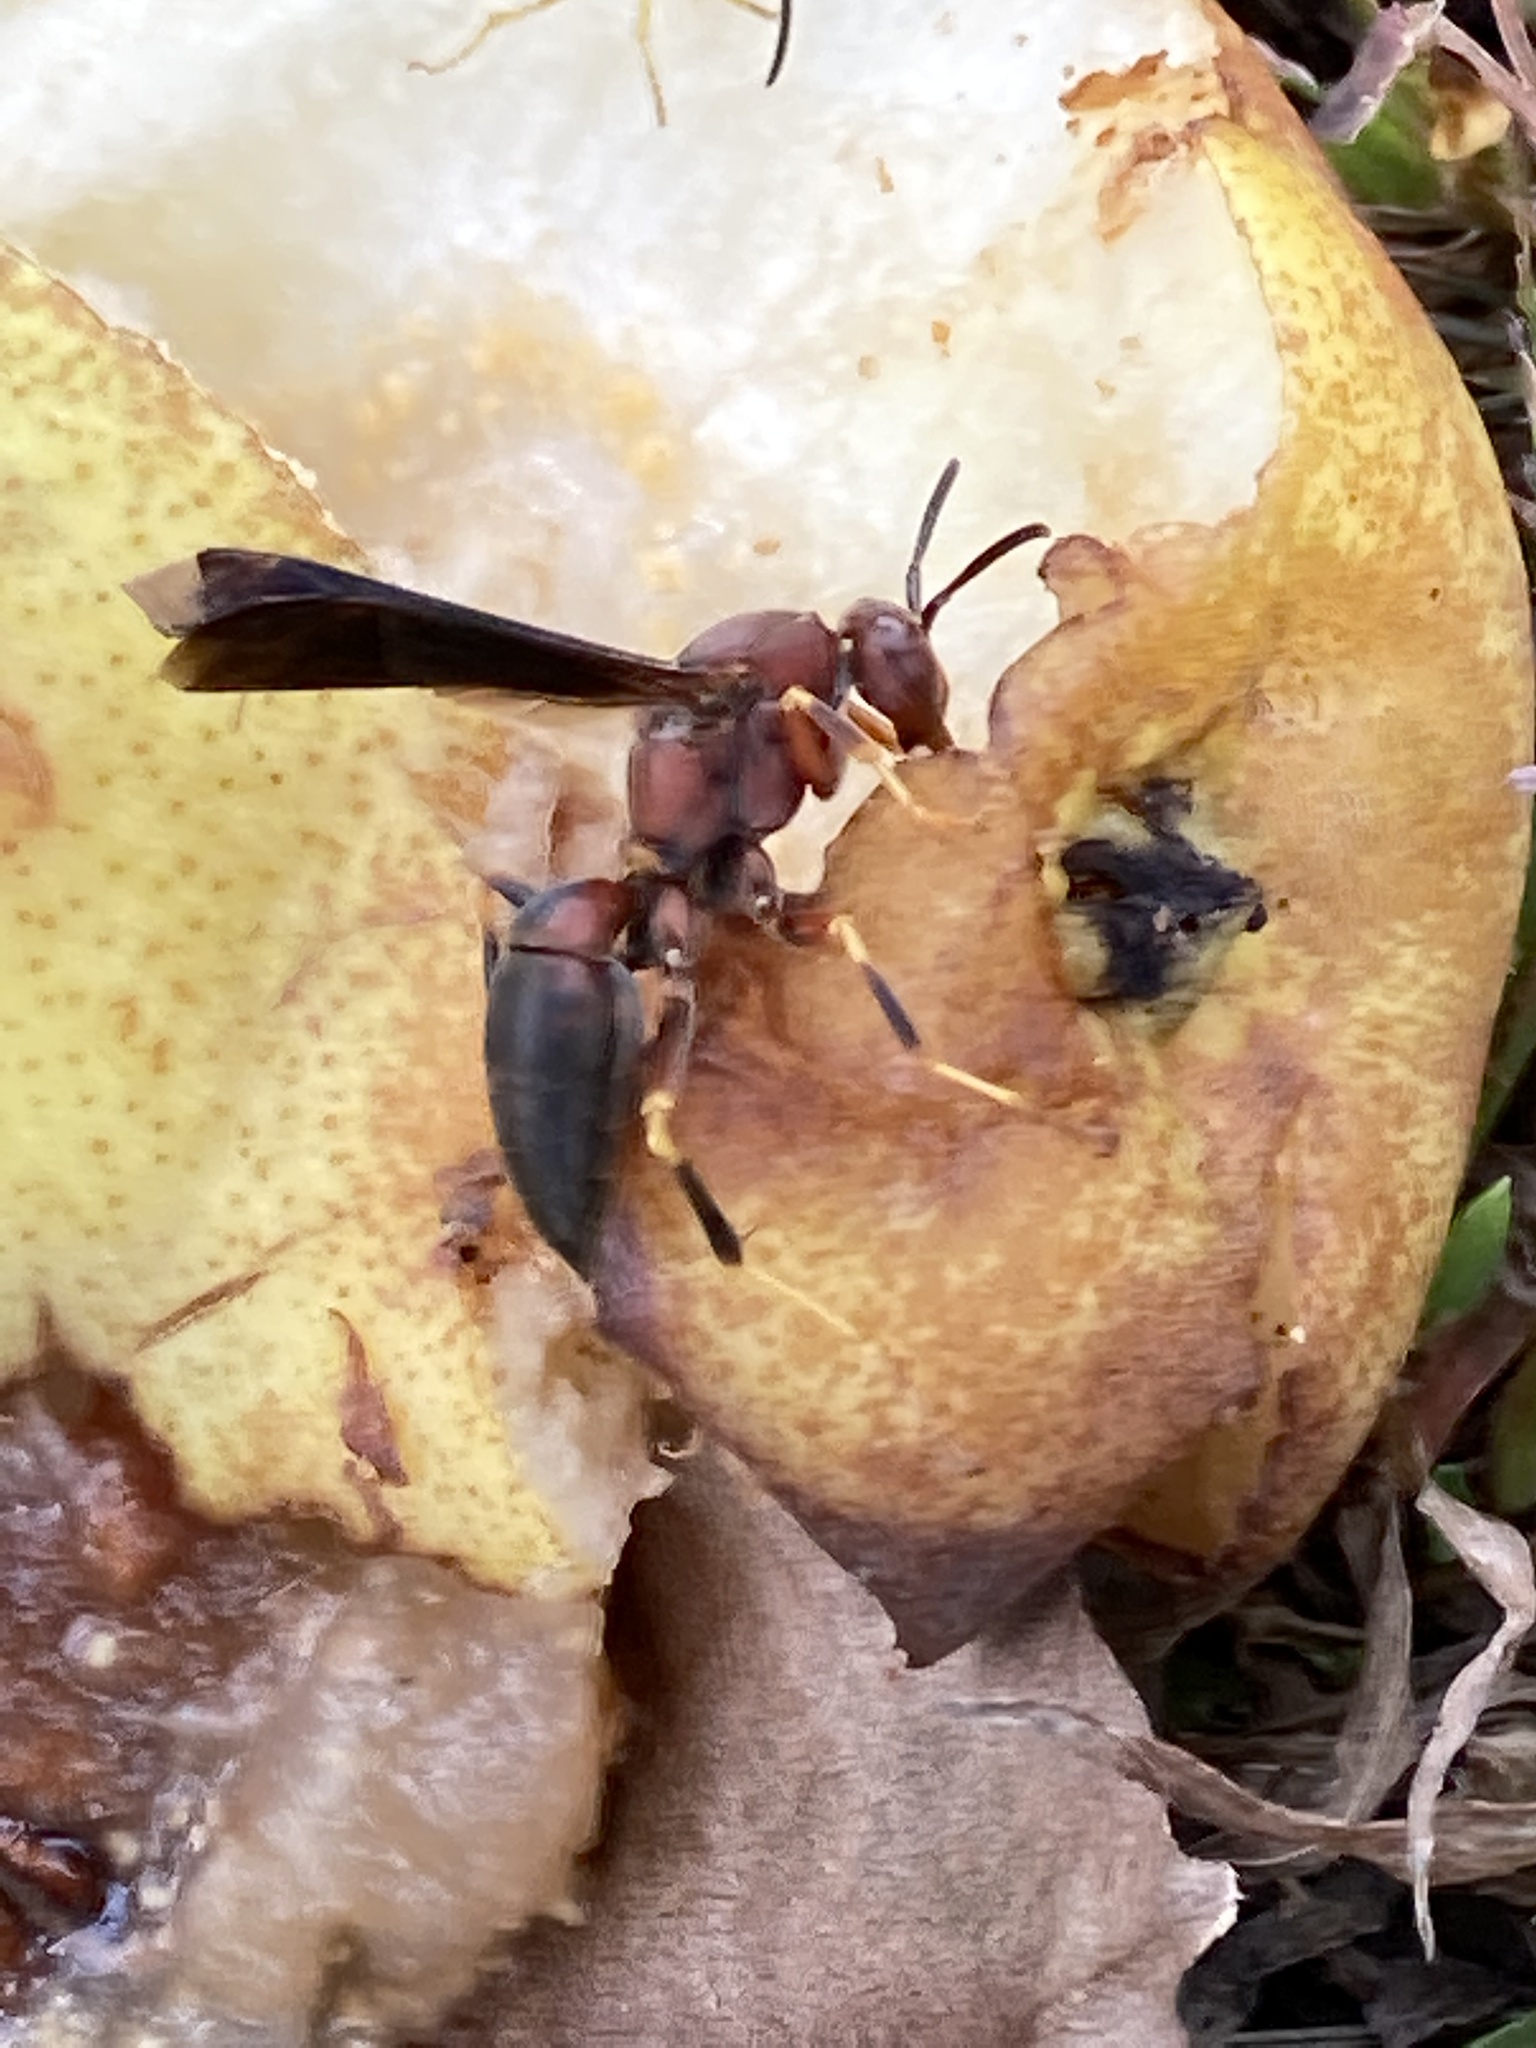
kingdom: Animalia
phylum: Arthropoda
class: Insecta
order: Hymenoptera
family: Eumenidae
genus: Polistes
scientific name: Polistes metricus
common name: Metric paper wasp
